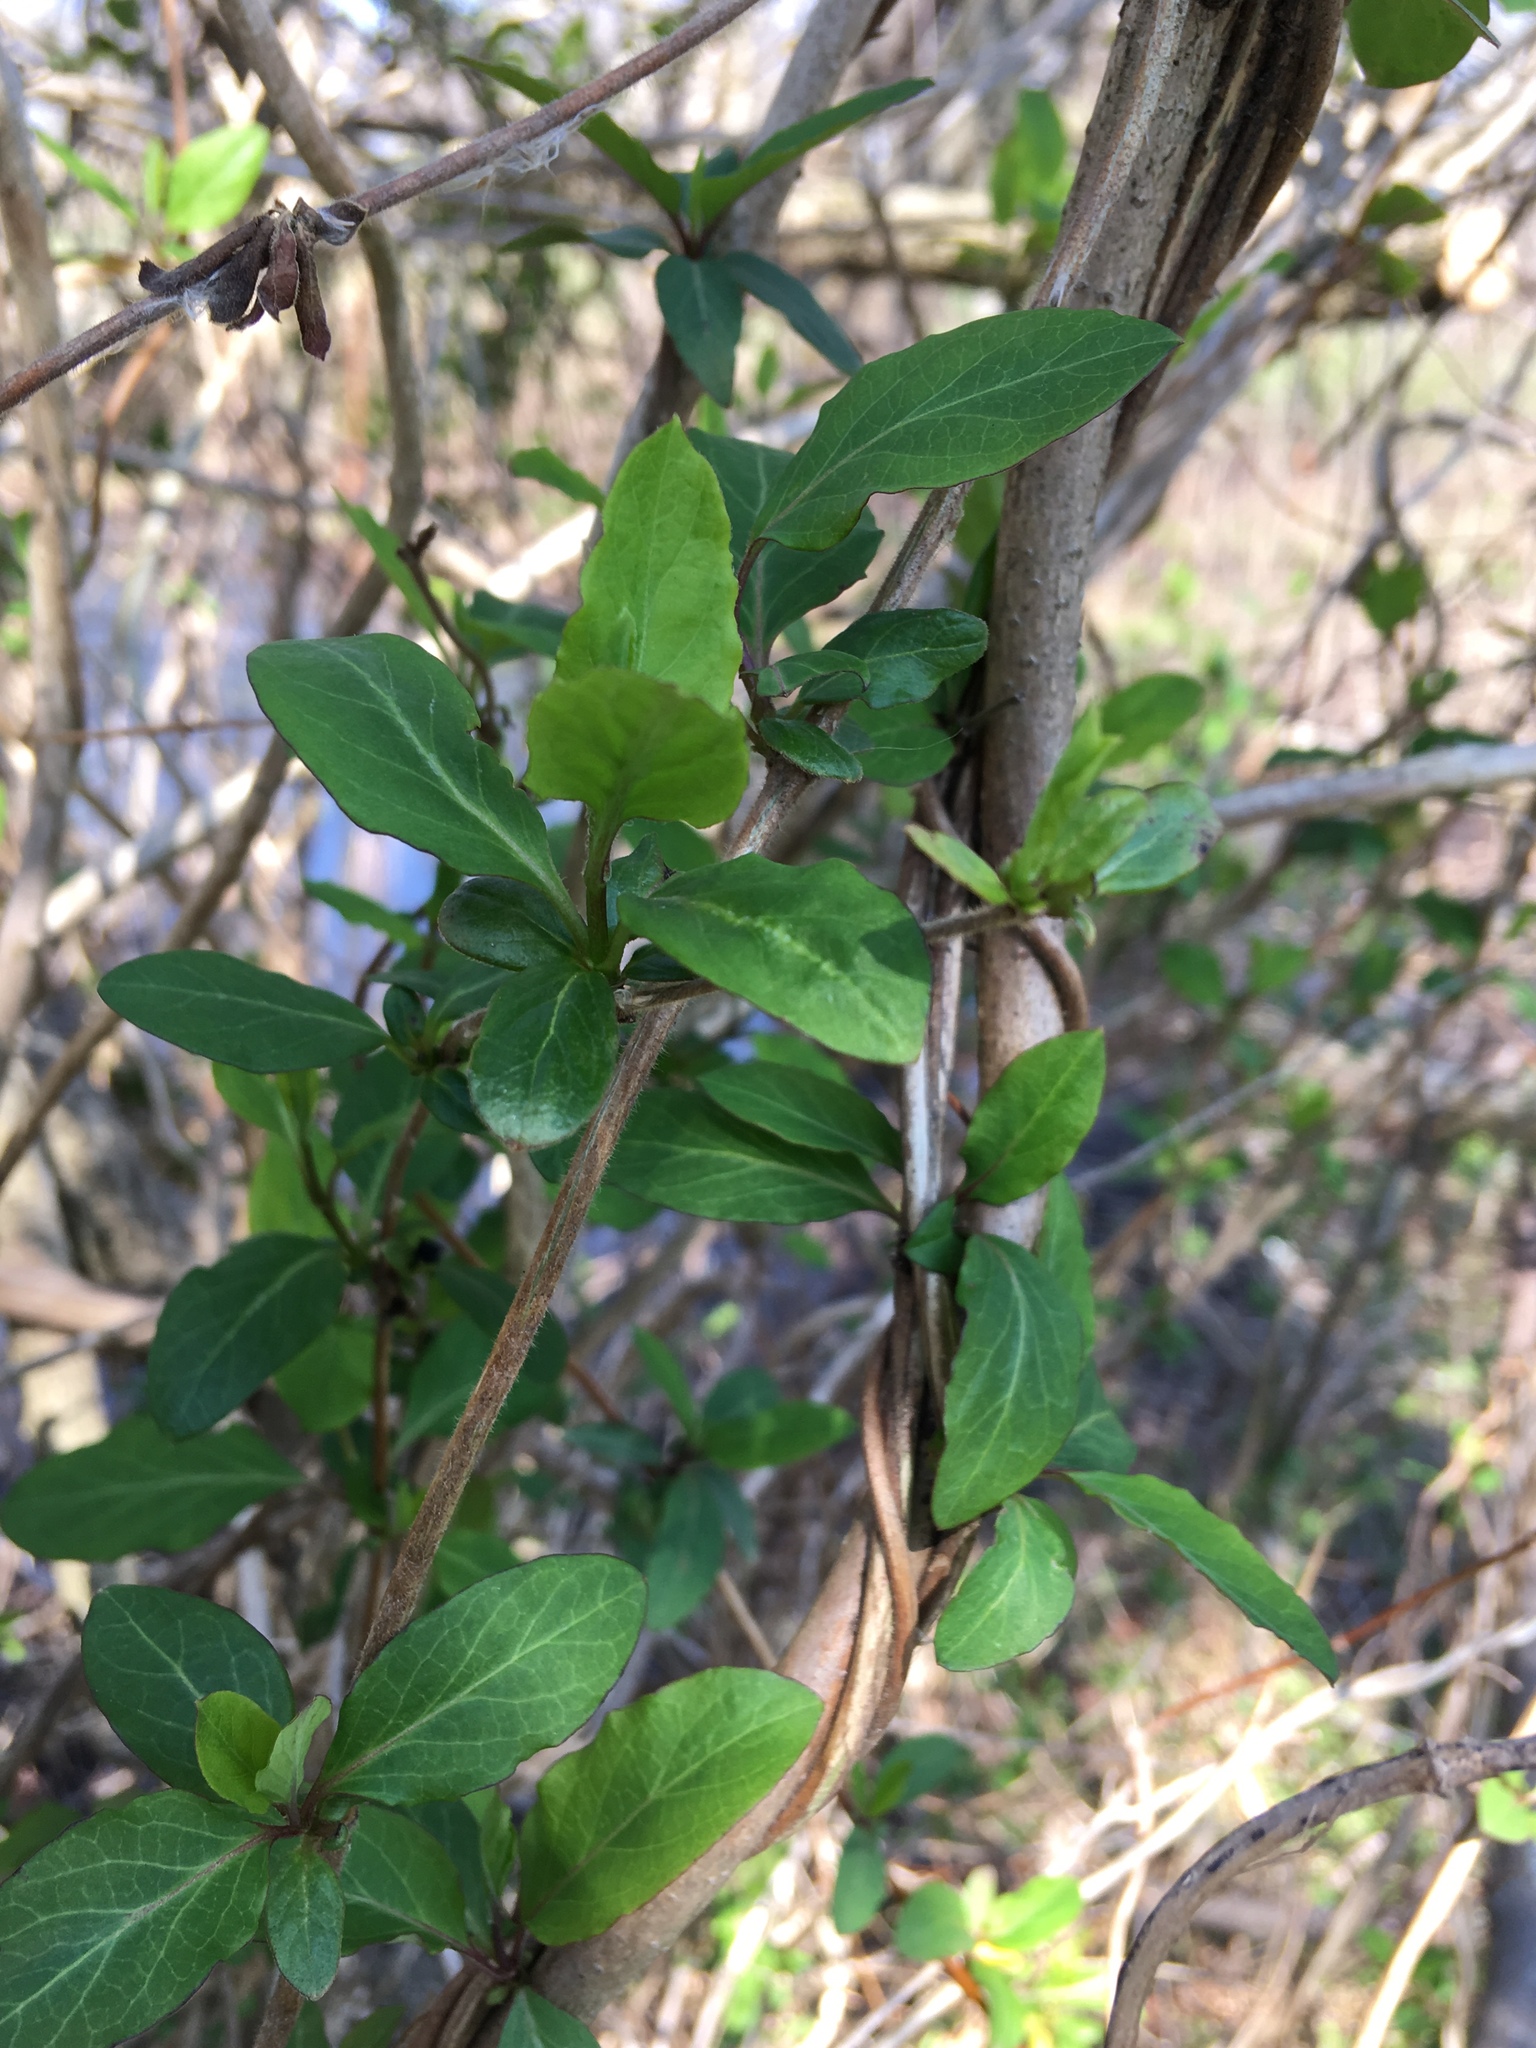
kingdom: Plantae
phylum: Tracheophyta
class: Magnoliopsida
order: Dipsacales
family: Caprifoliaceae
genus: Lonicera
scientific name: Lonicera japonica
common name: Japanese honeysuckle
